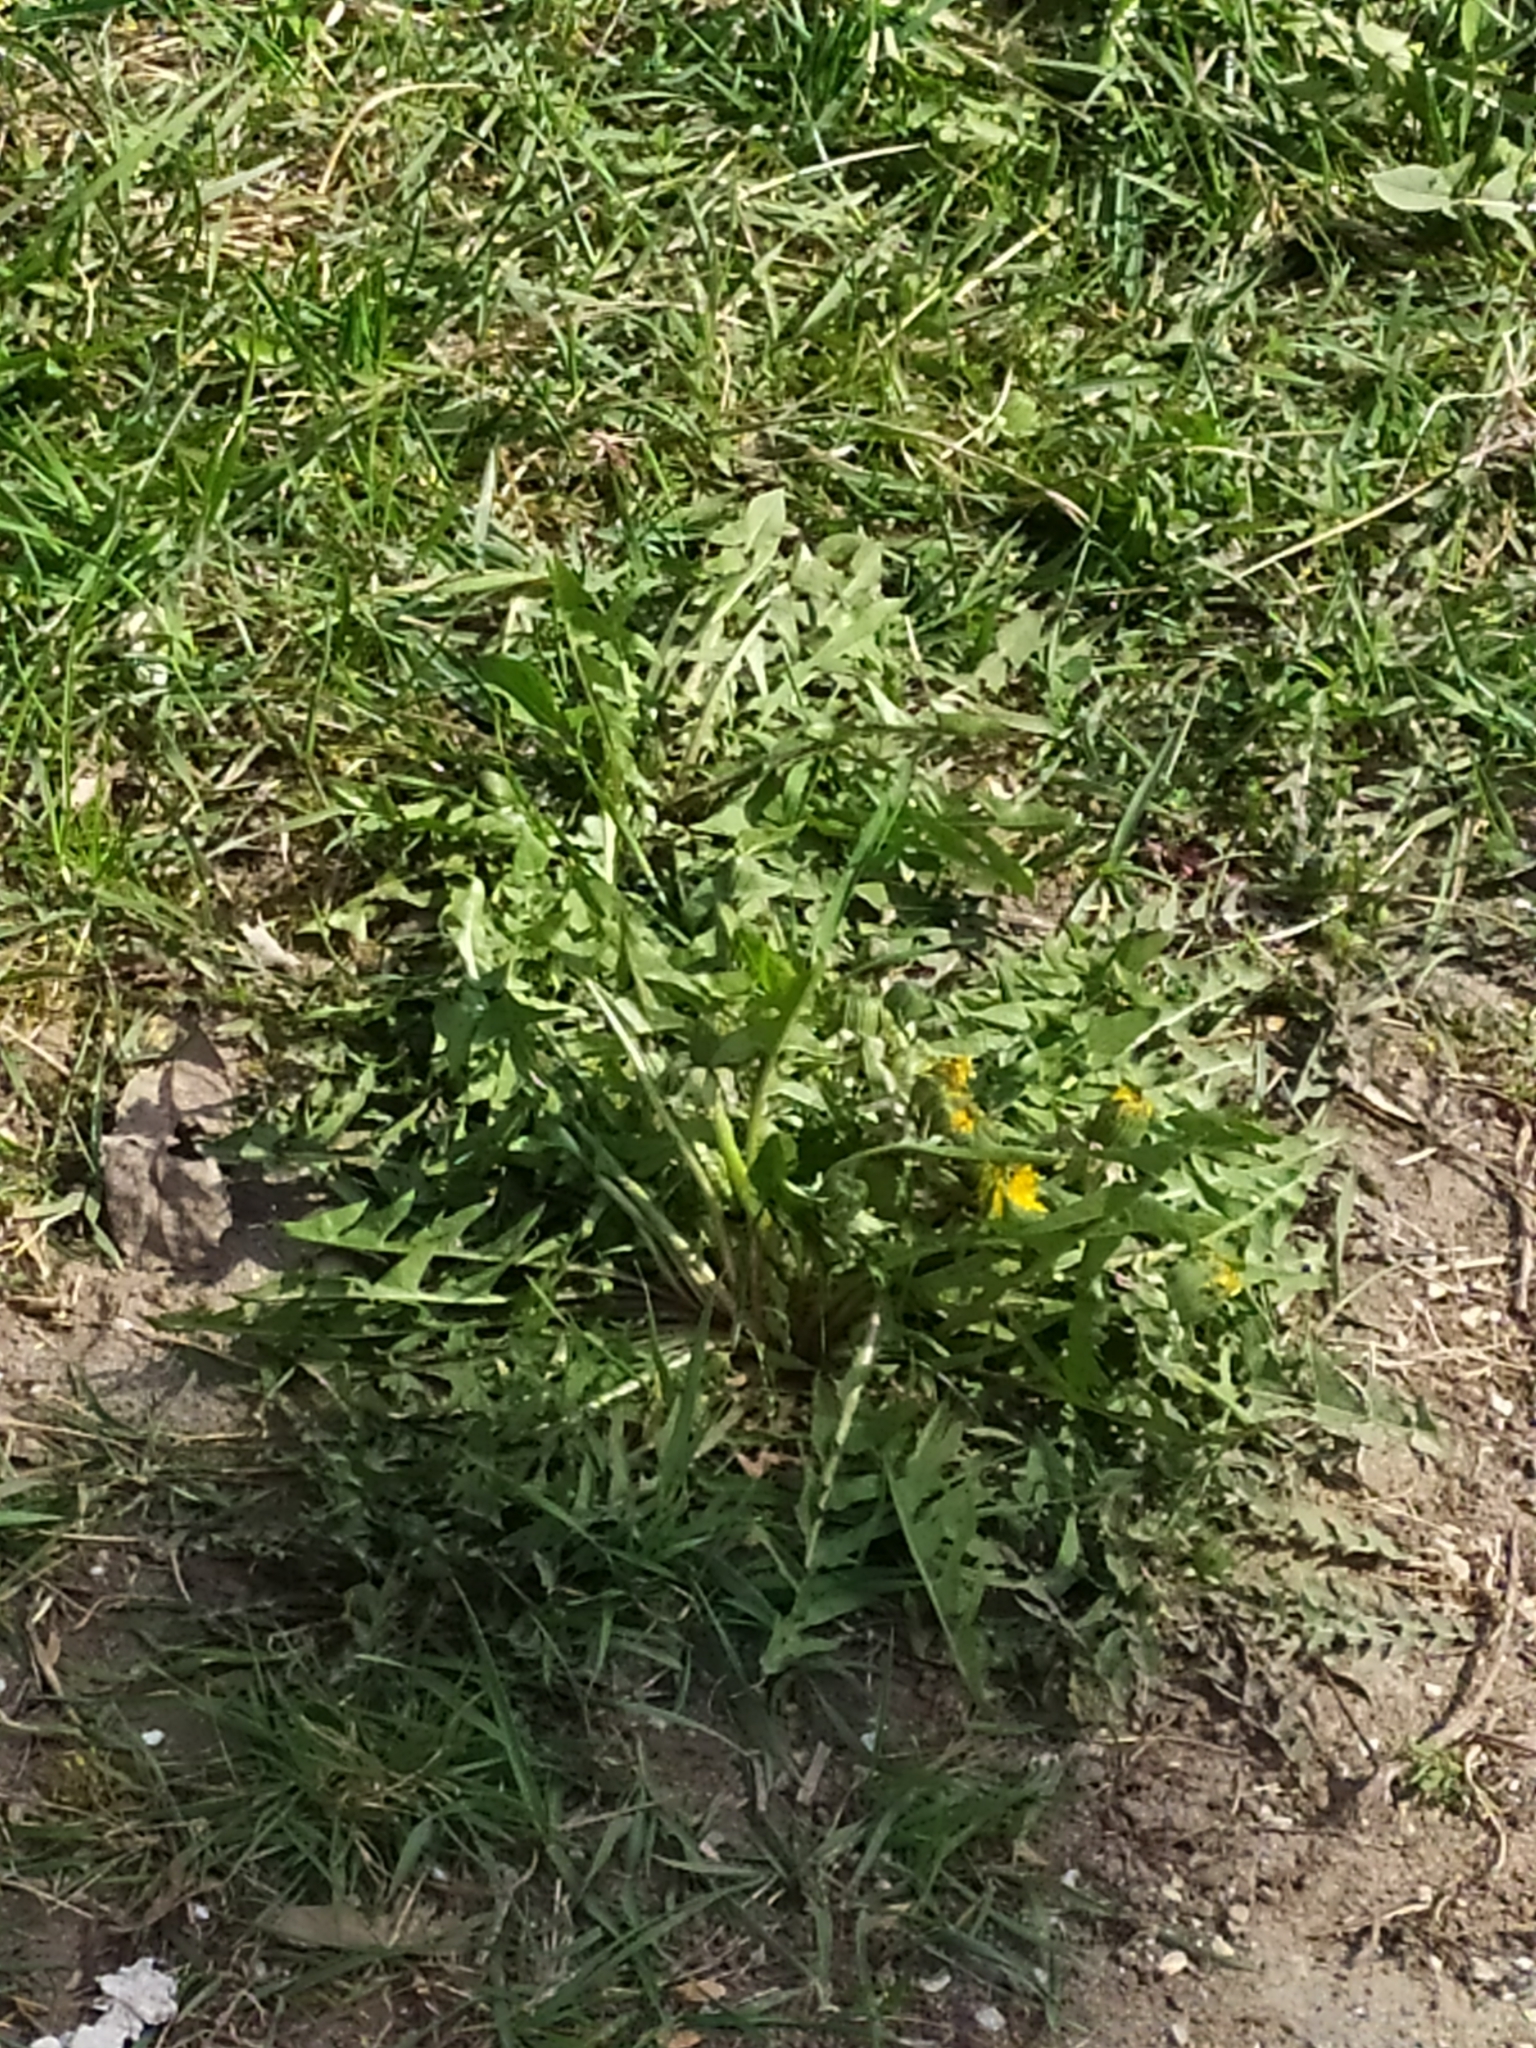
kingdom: Plantae
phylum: Tracheophyta
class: Magnoliopsida
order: Asterales
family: Asteraceae
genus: Taraxacum
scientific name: Taraxacum officinale
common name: Common dandelion
